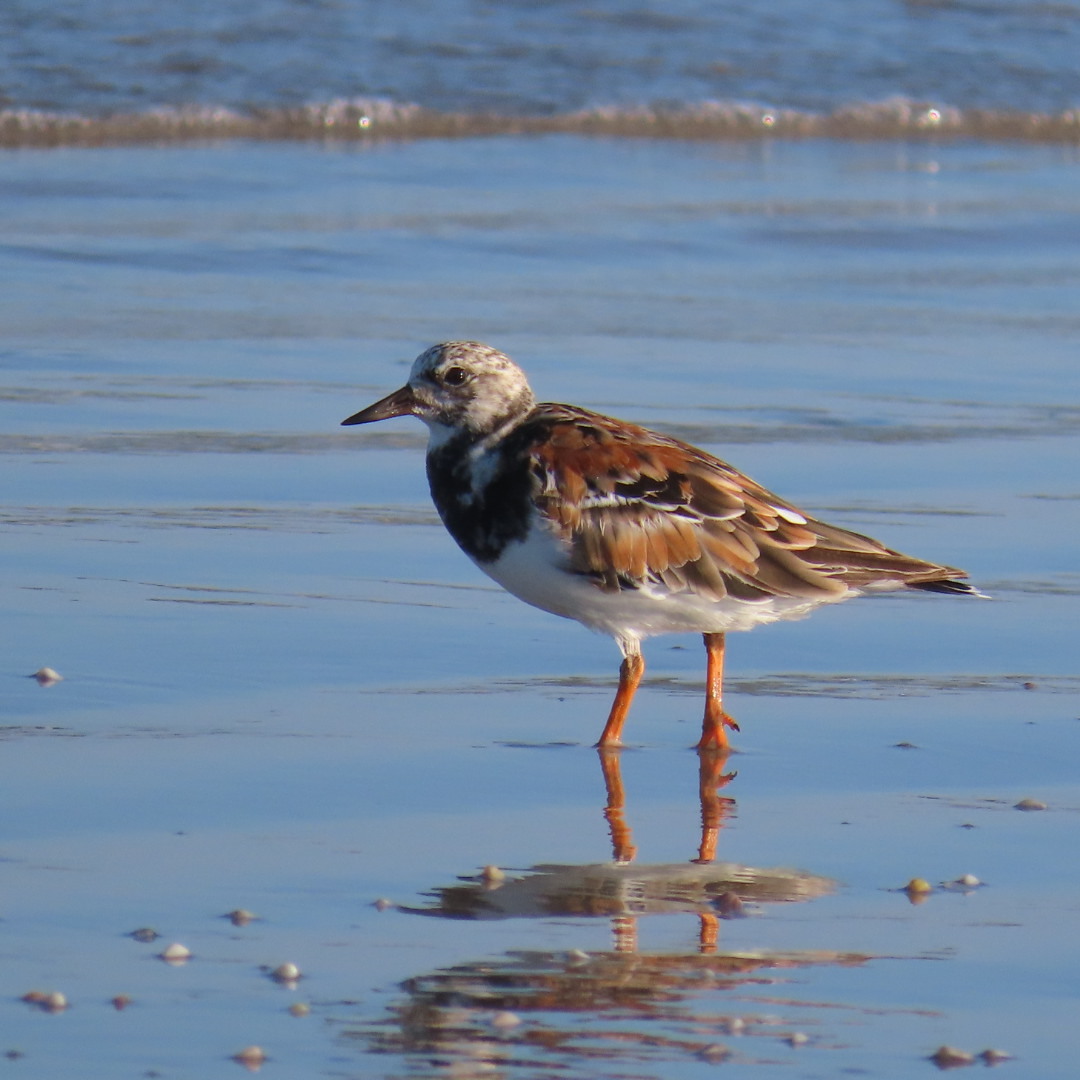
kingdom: Animalia
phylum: Chordata
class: Aves
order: Charadriiformes
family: Scolopacidae
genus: Arenaria
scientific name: Arenaria interpres
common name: Ruddy turnstone
